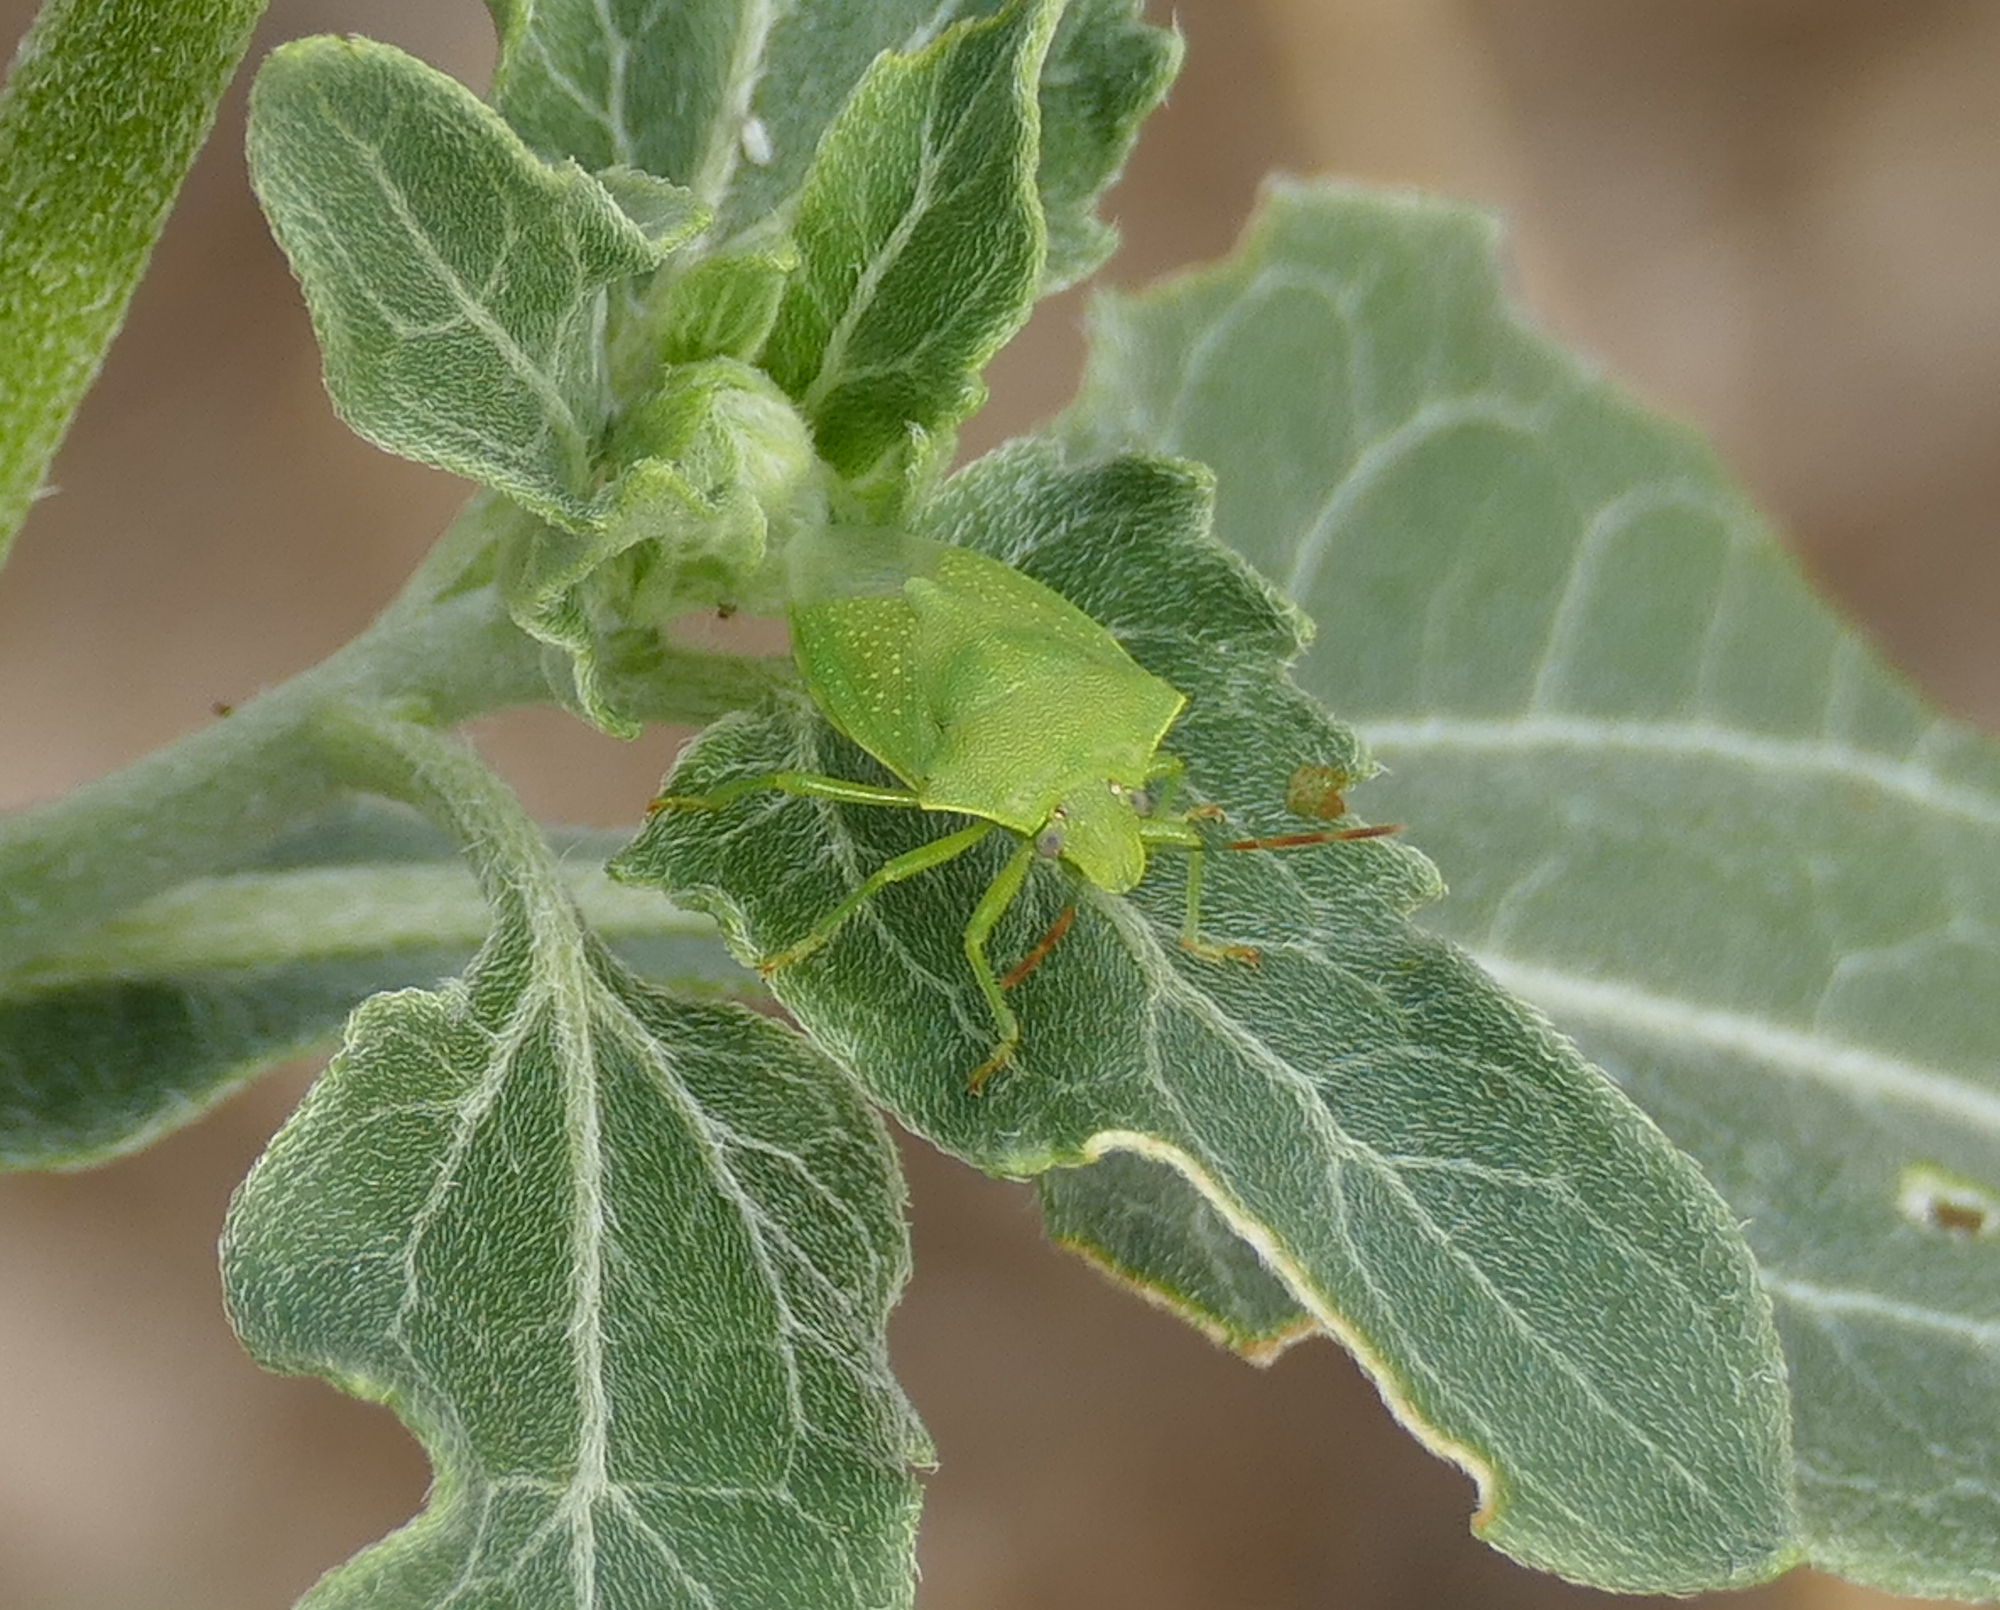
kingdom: Animalia
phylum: Arthropoda
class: Insecta
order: Hemiptera
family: Pentatomidae
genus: Thyanta
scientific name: Thyanta custator
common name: Stink bug
